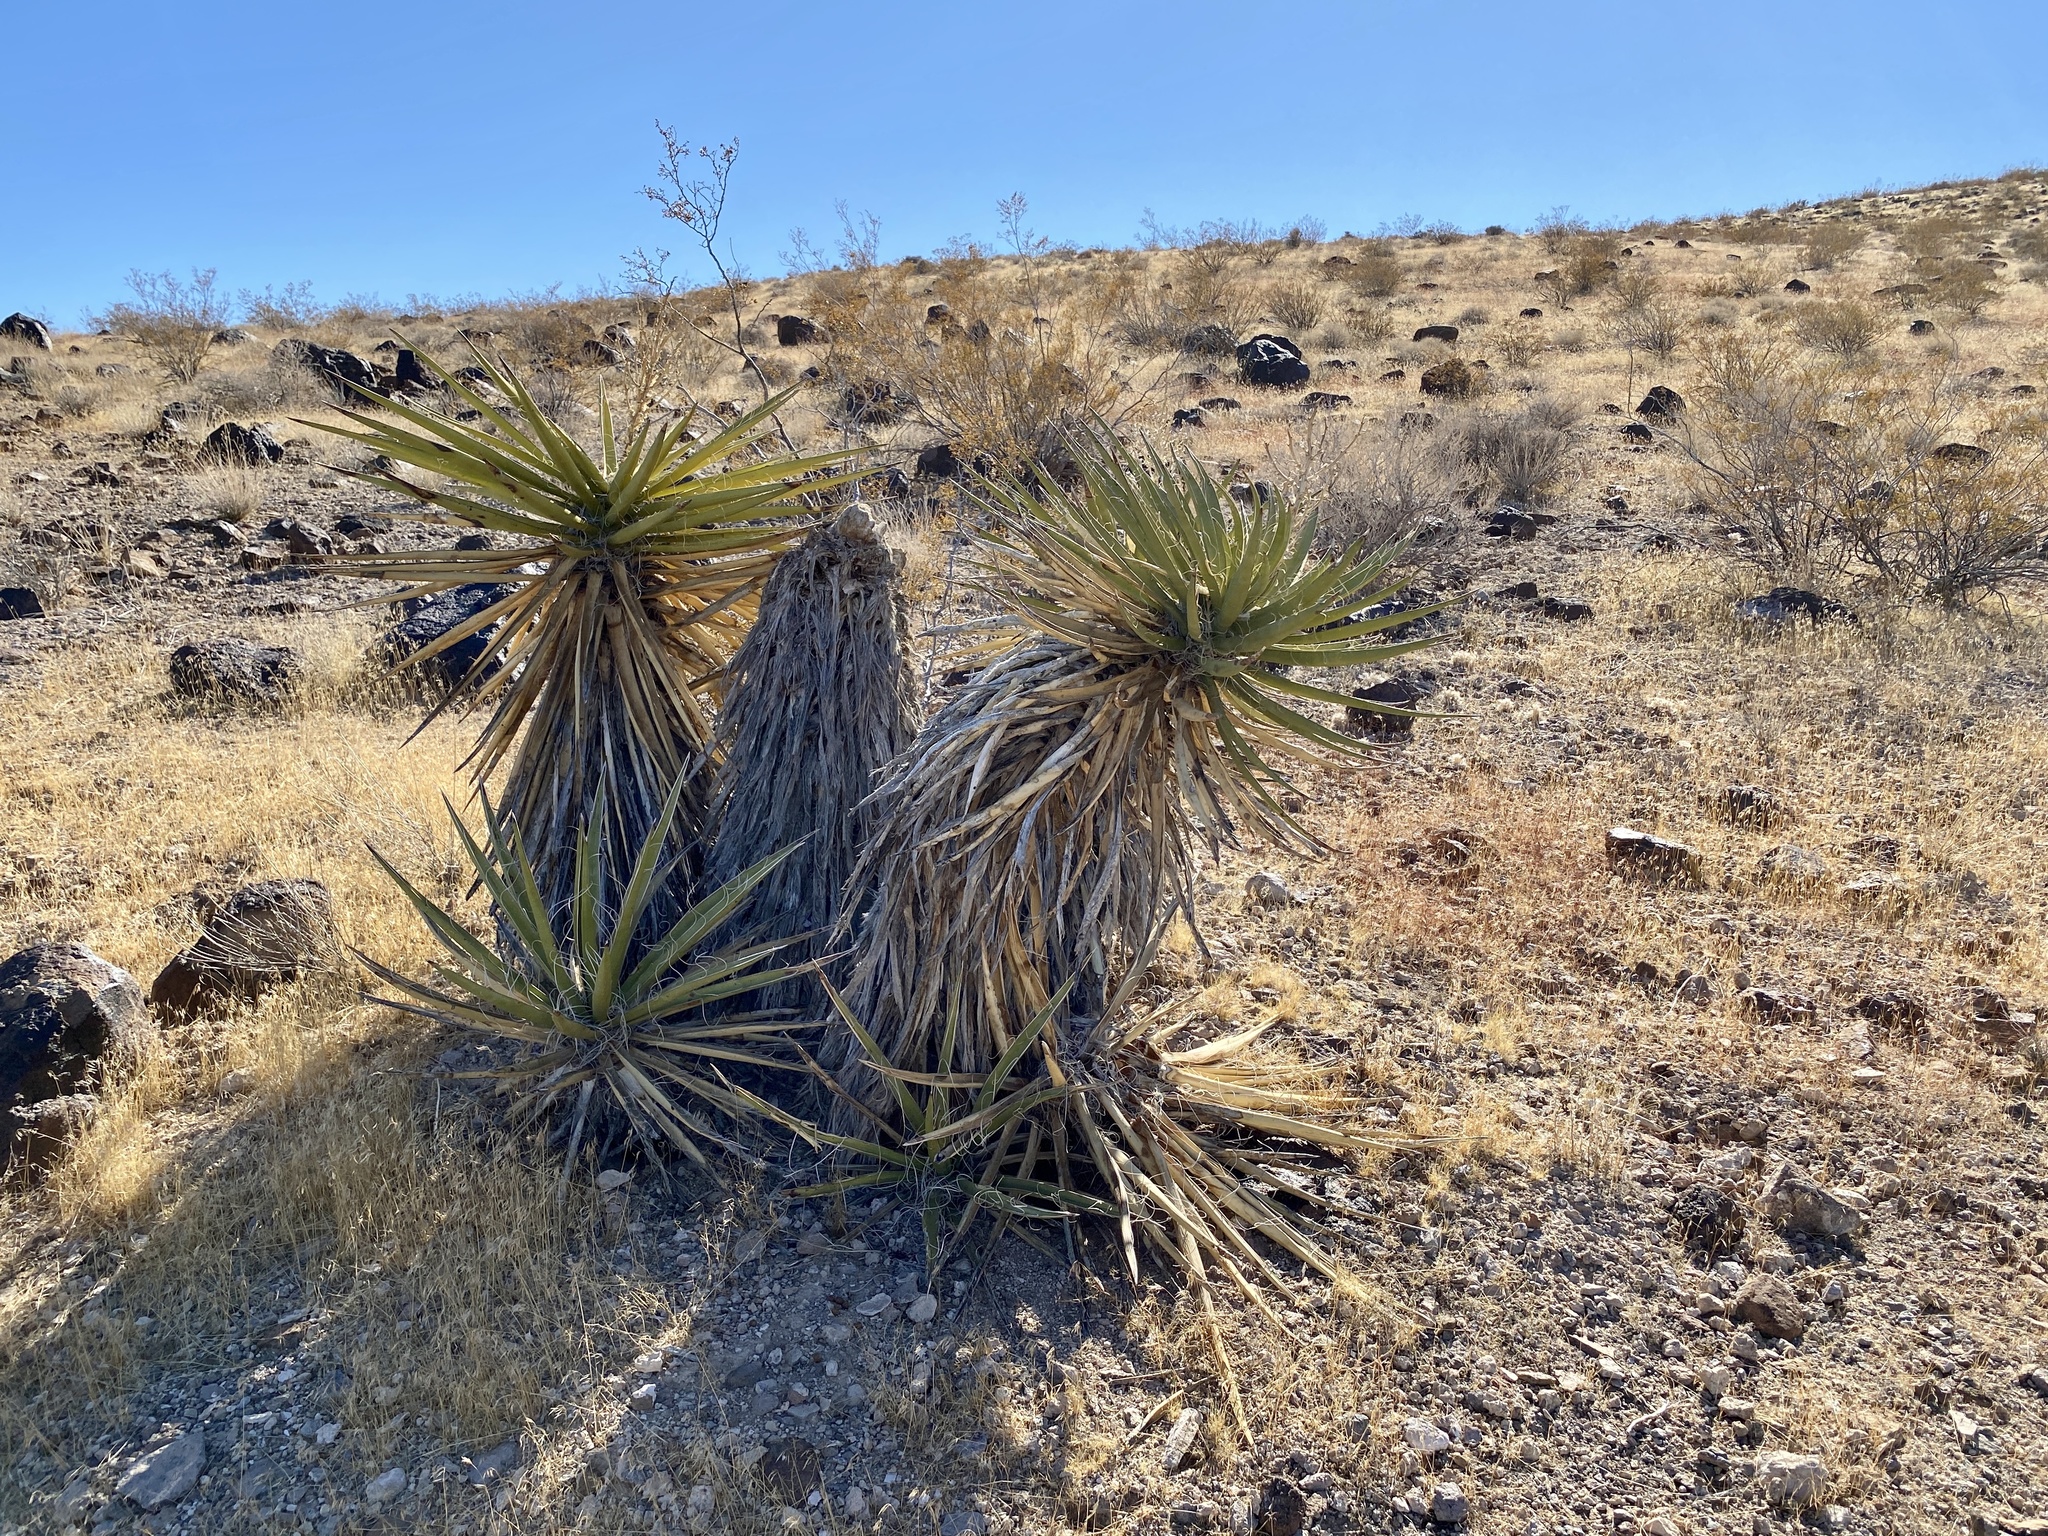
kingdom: Plantae
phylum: Tracheophyta
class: Liliopsida
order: Asparagales
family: Asparagaceae
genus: Yucca
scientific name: Yucca schidigera
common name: Mojave yucca
